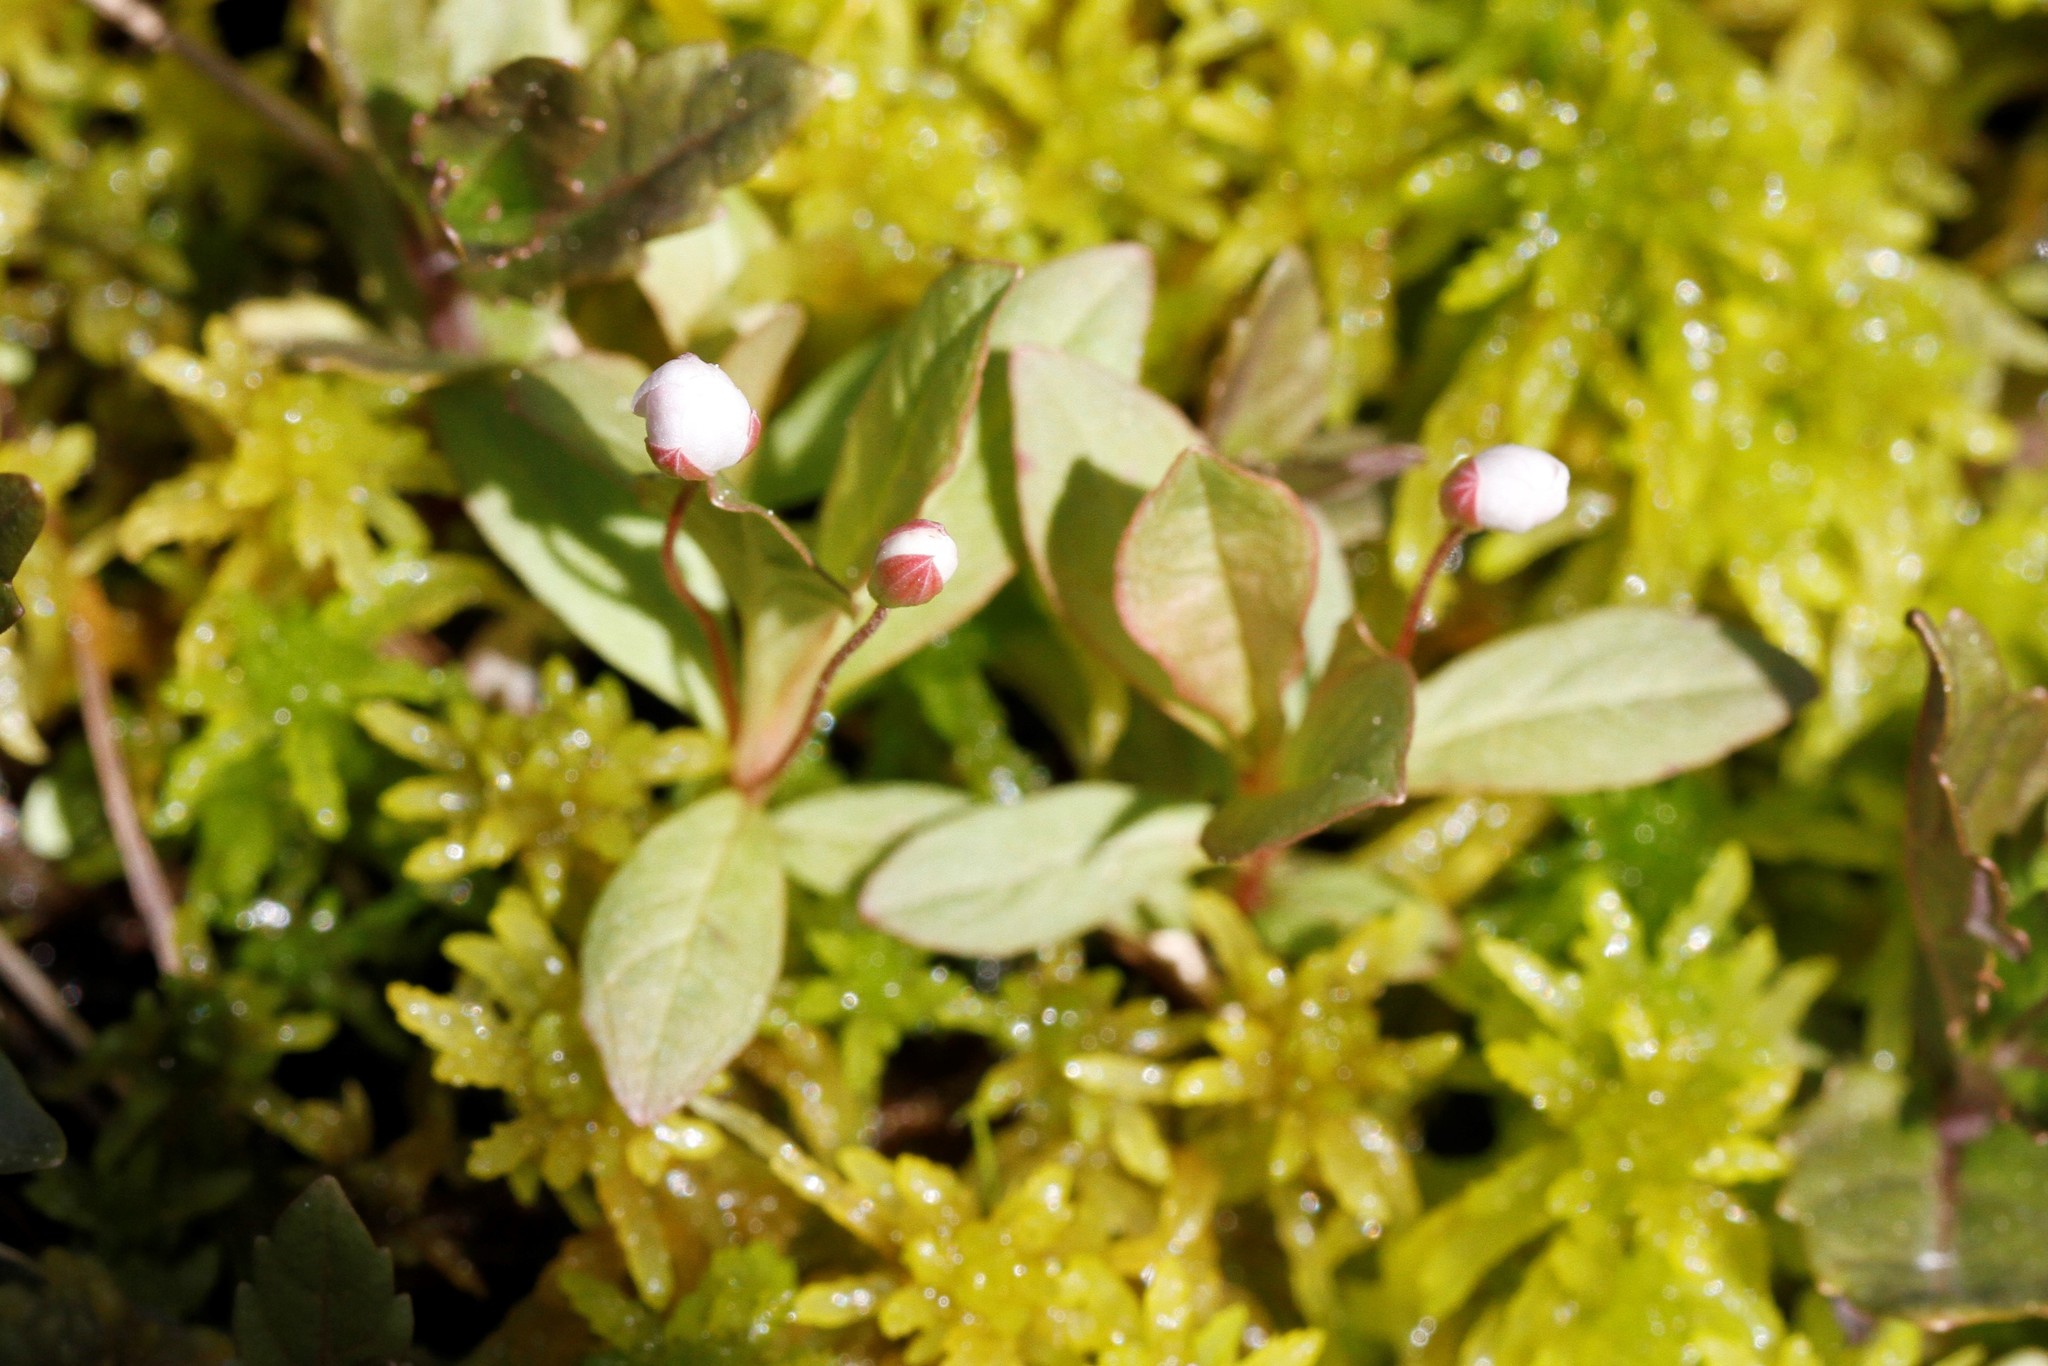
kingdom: Plantae
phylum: Tracheophyta
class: Magnoliopsida
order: Ericales
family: Primulaceae
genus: Lysimachia
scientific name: Lysimachia europaea
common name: Arctic starflower
